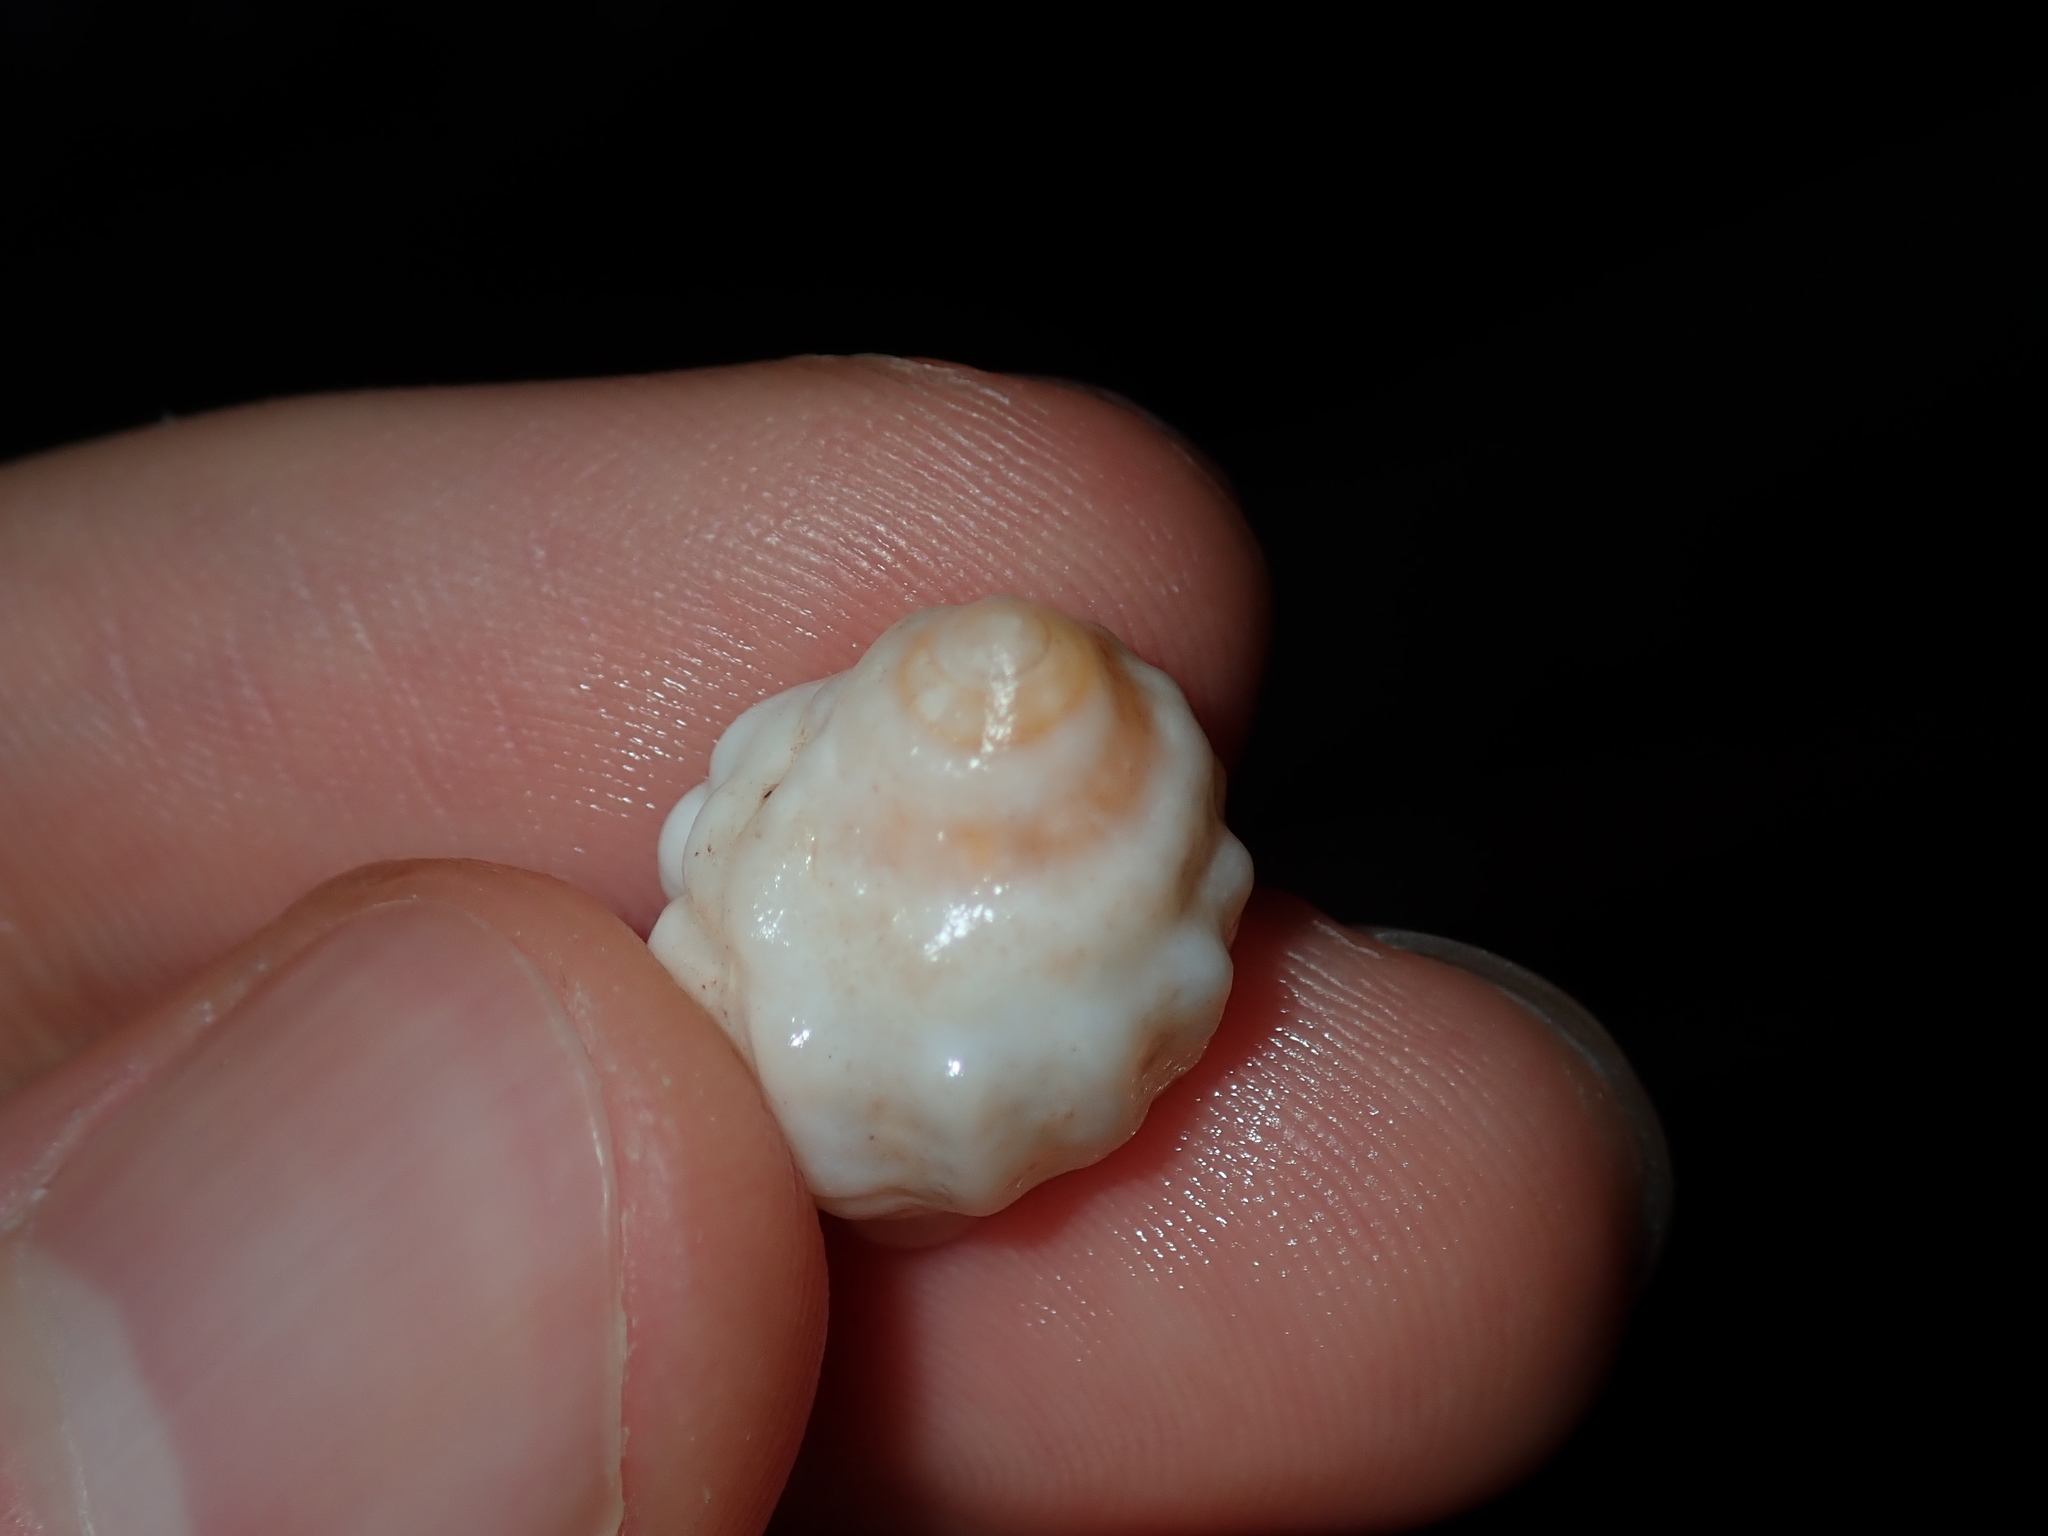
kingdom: Animalia
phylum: Mollusca
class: Gastropoda
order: Neogastropoda
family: Muricidae
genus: Oppomorus
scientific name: Oppomorus noduliferus
